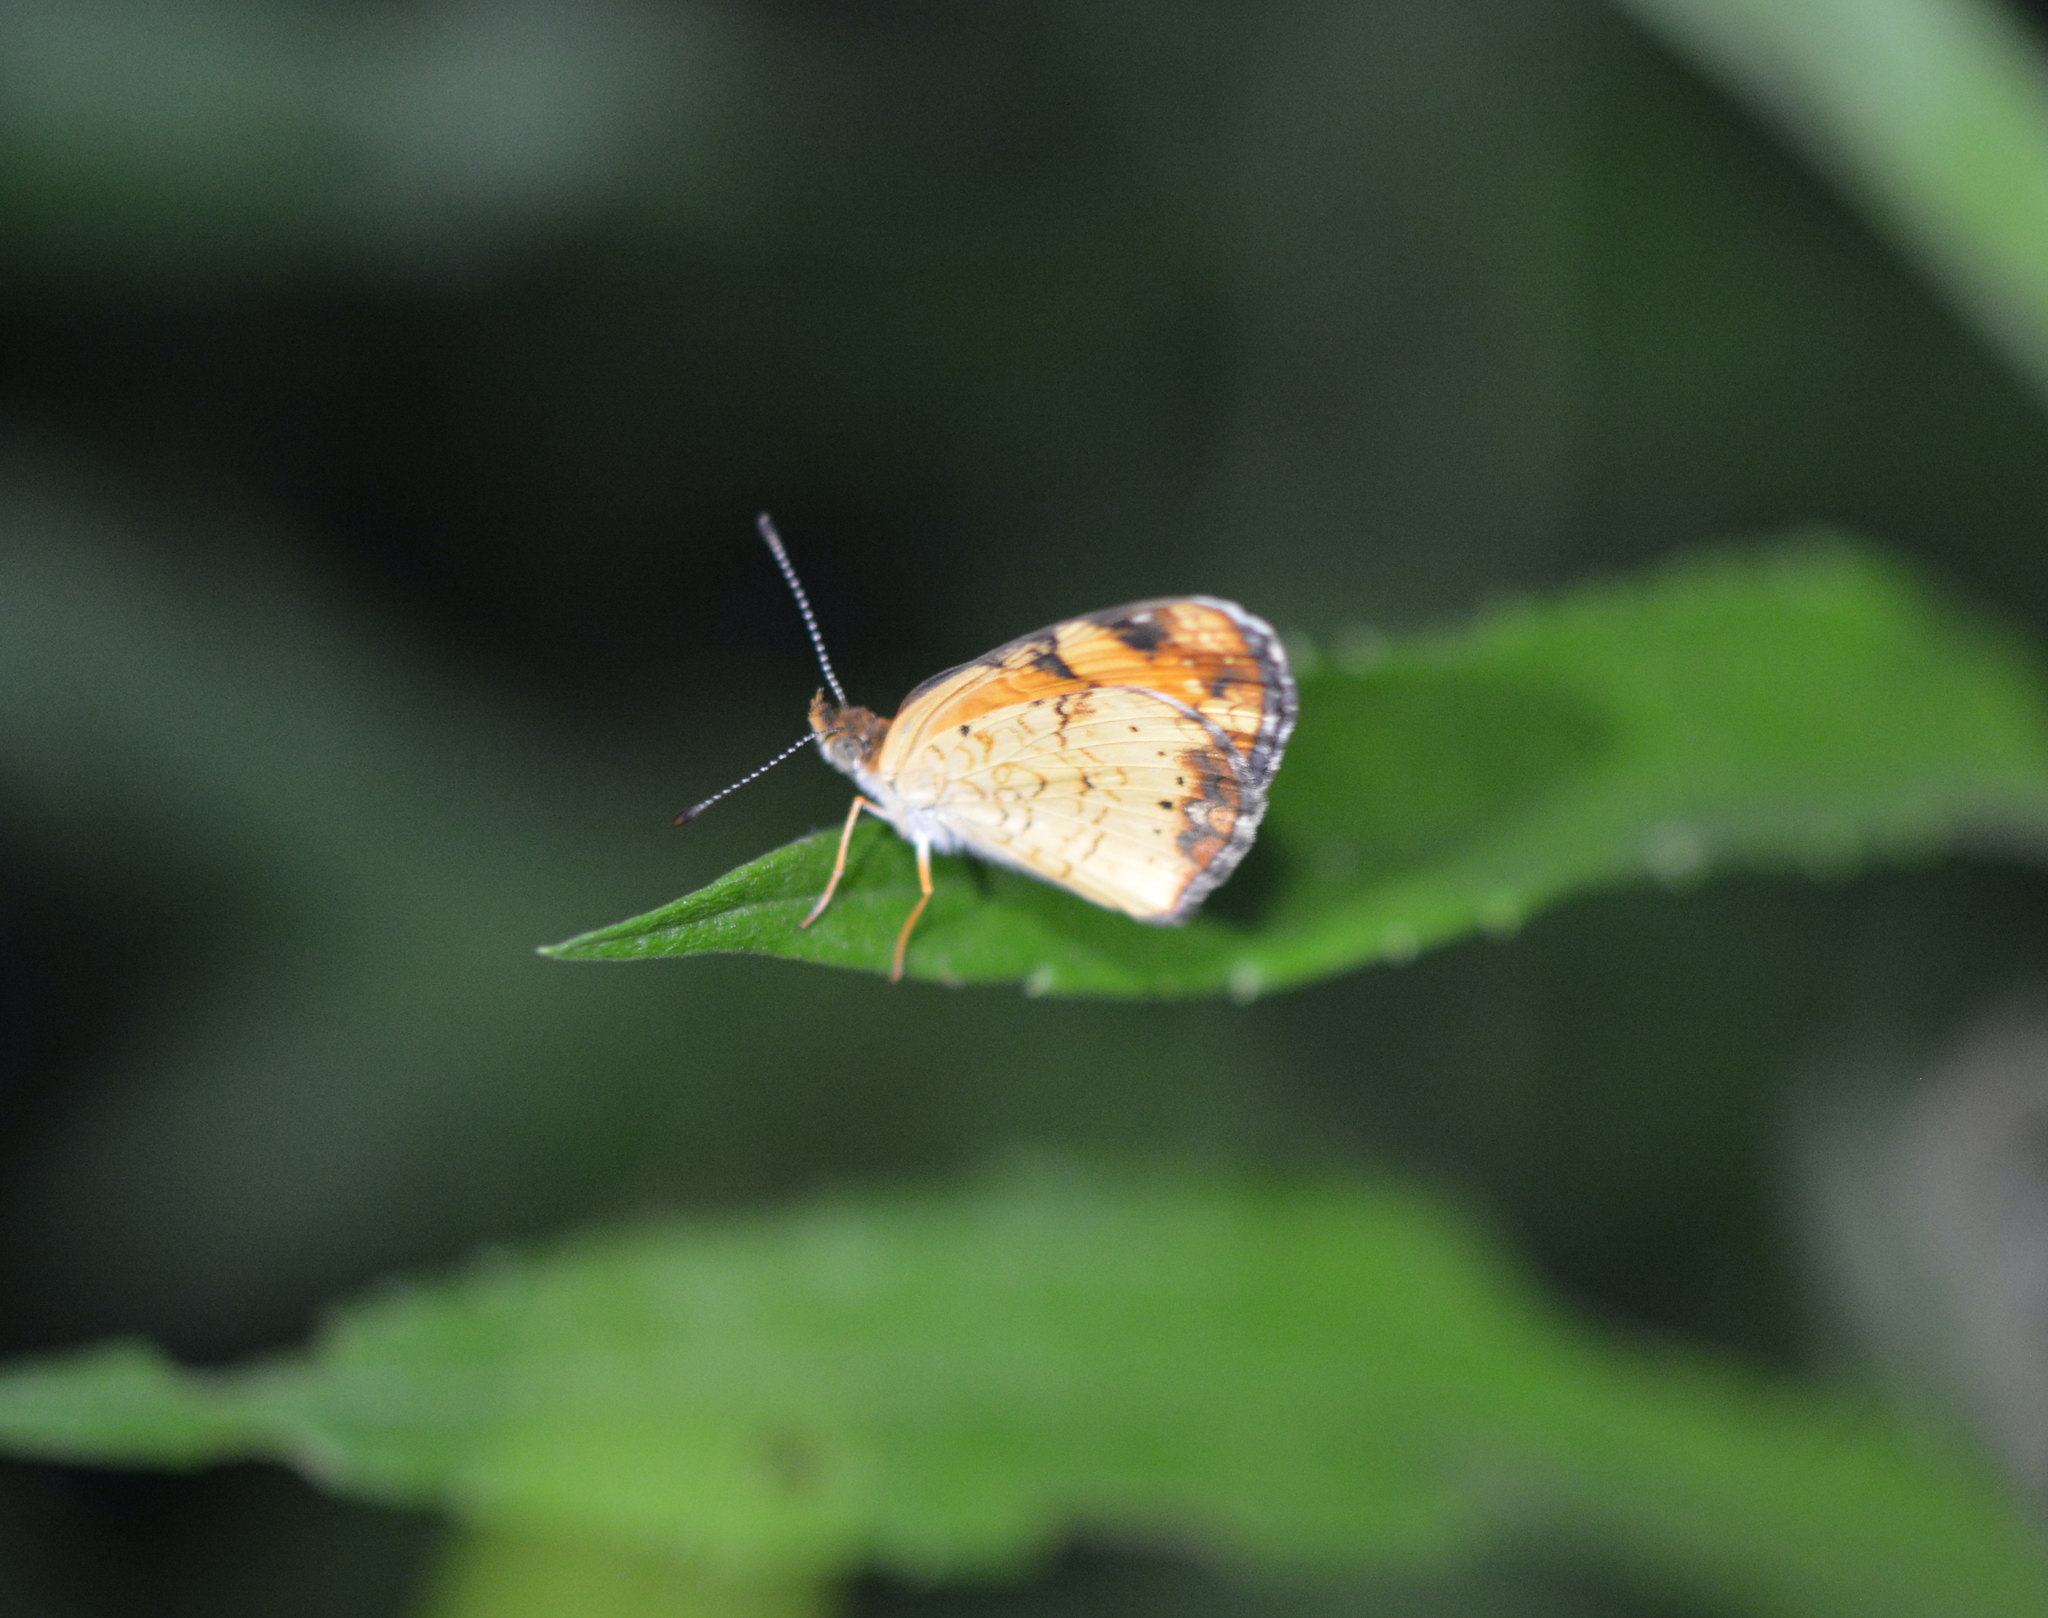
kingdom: Animalia
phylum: Arthropoda
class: Insecta
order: Lepidoptera
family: Nymphalidae
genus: Phyciodes
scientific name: Phyciodes tharos
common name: Pearl crescent
